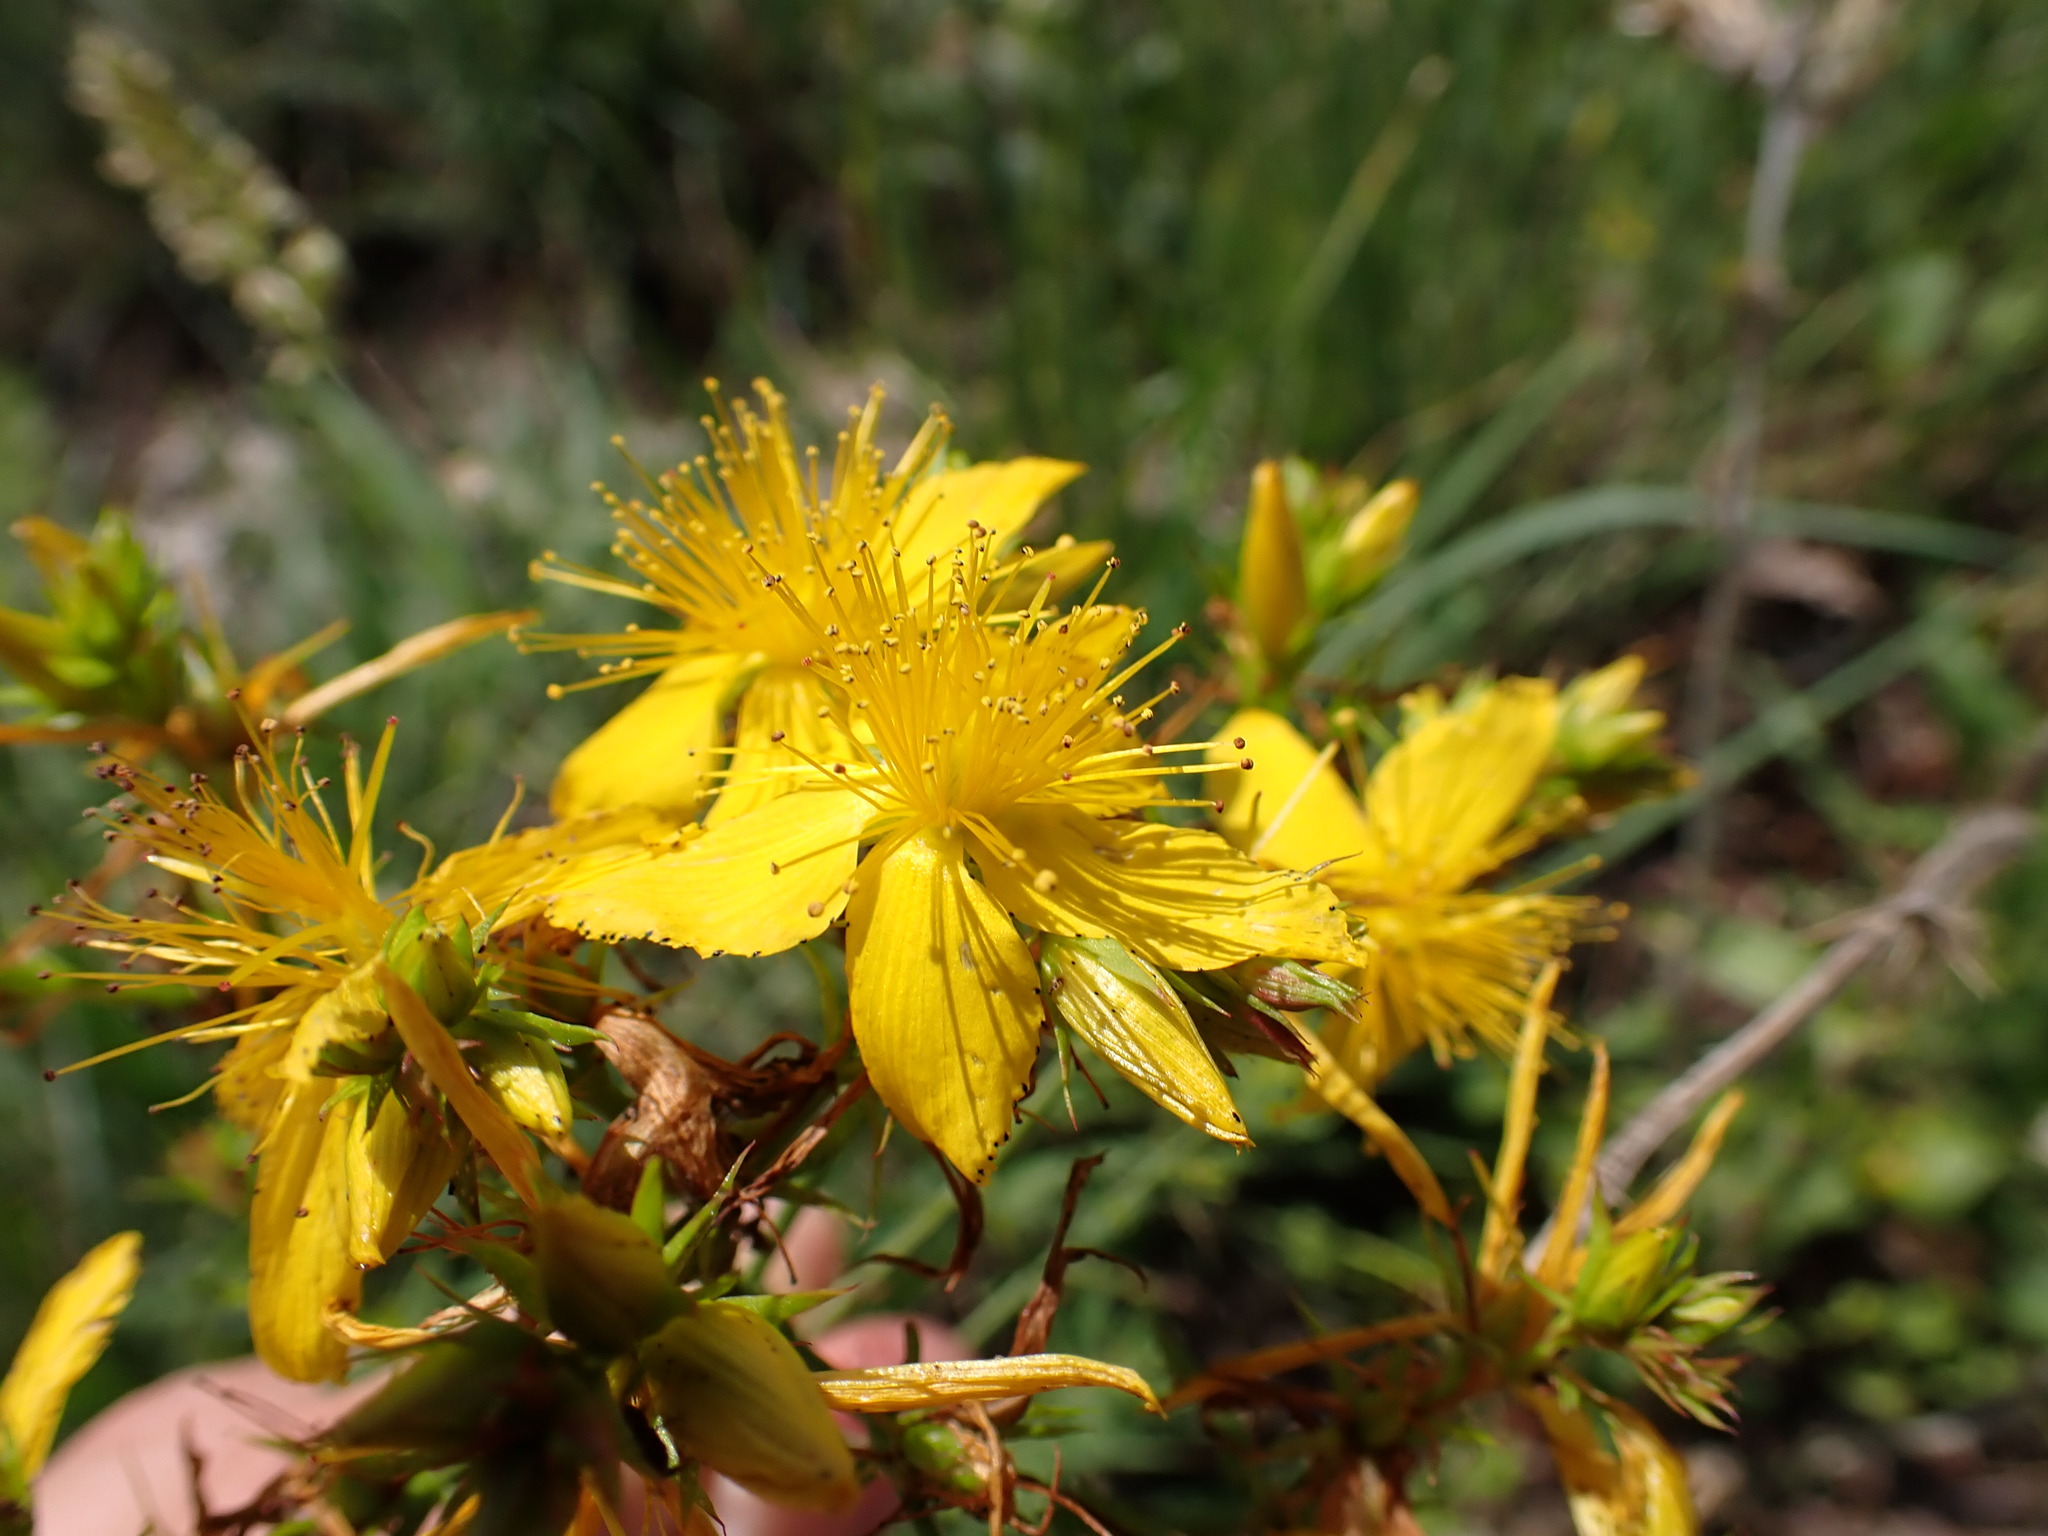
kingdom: Plantae
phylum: Tracheophyta
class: Magnoliopsida
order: Malpighiales
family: Hypericaceae
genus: Hypericum
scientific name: Hypericum perforatum
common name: Common st. johnswort
